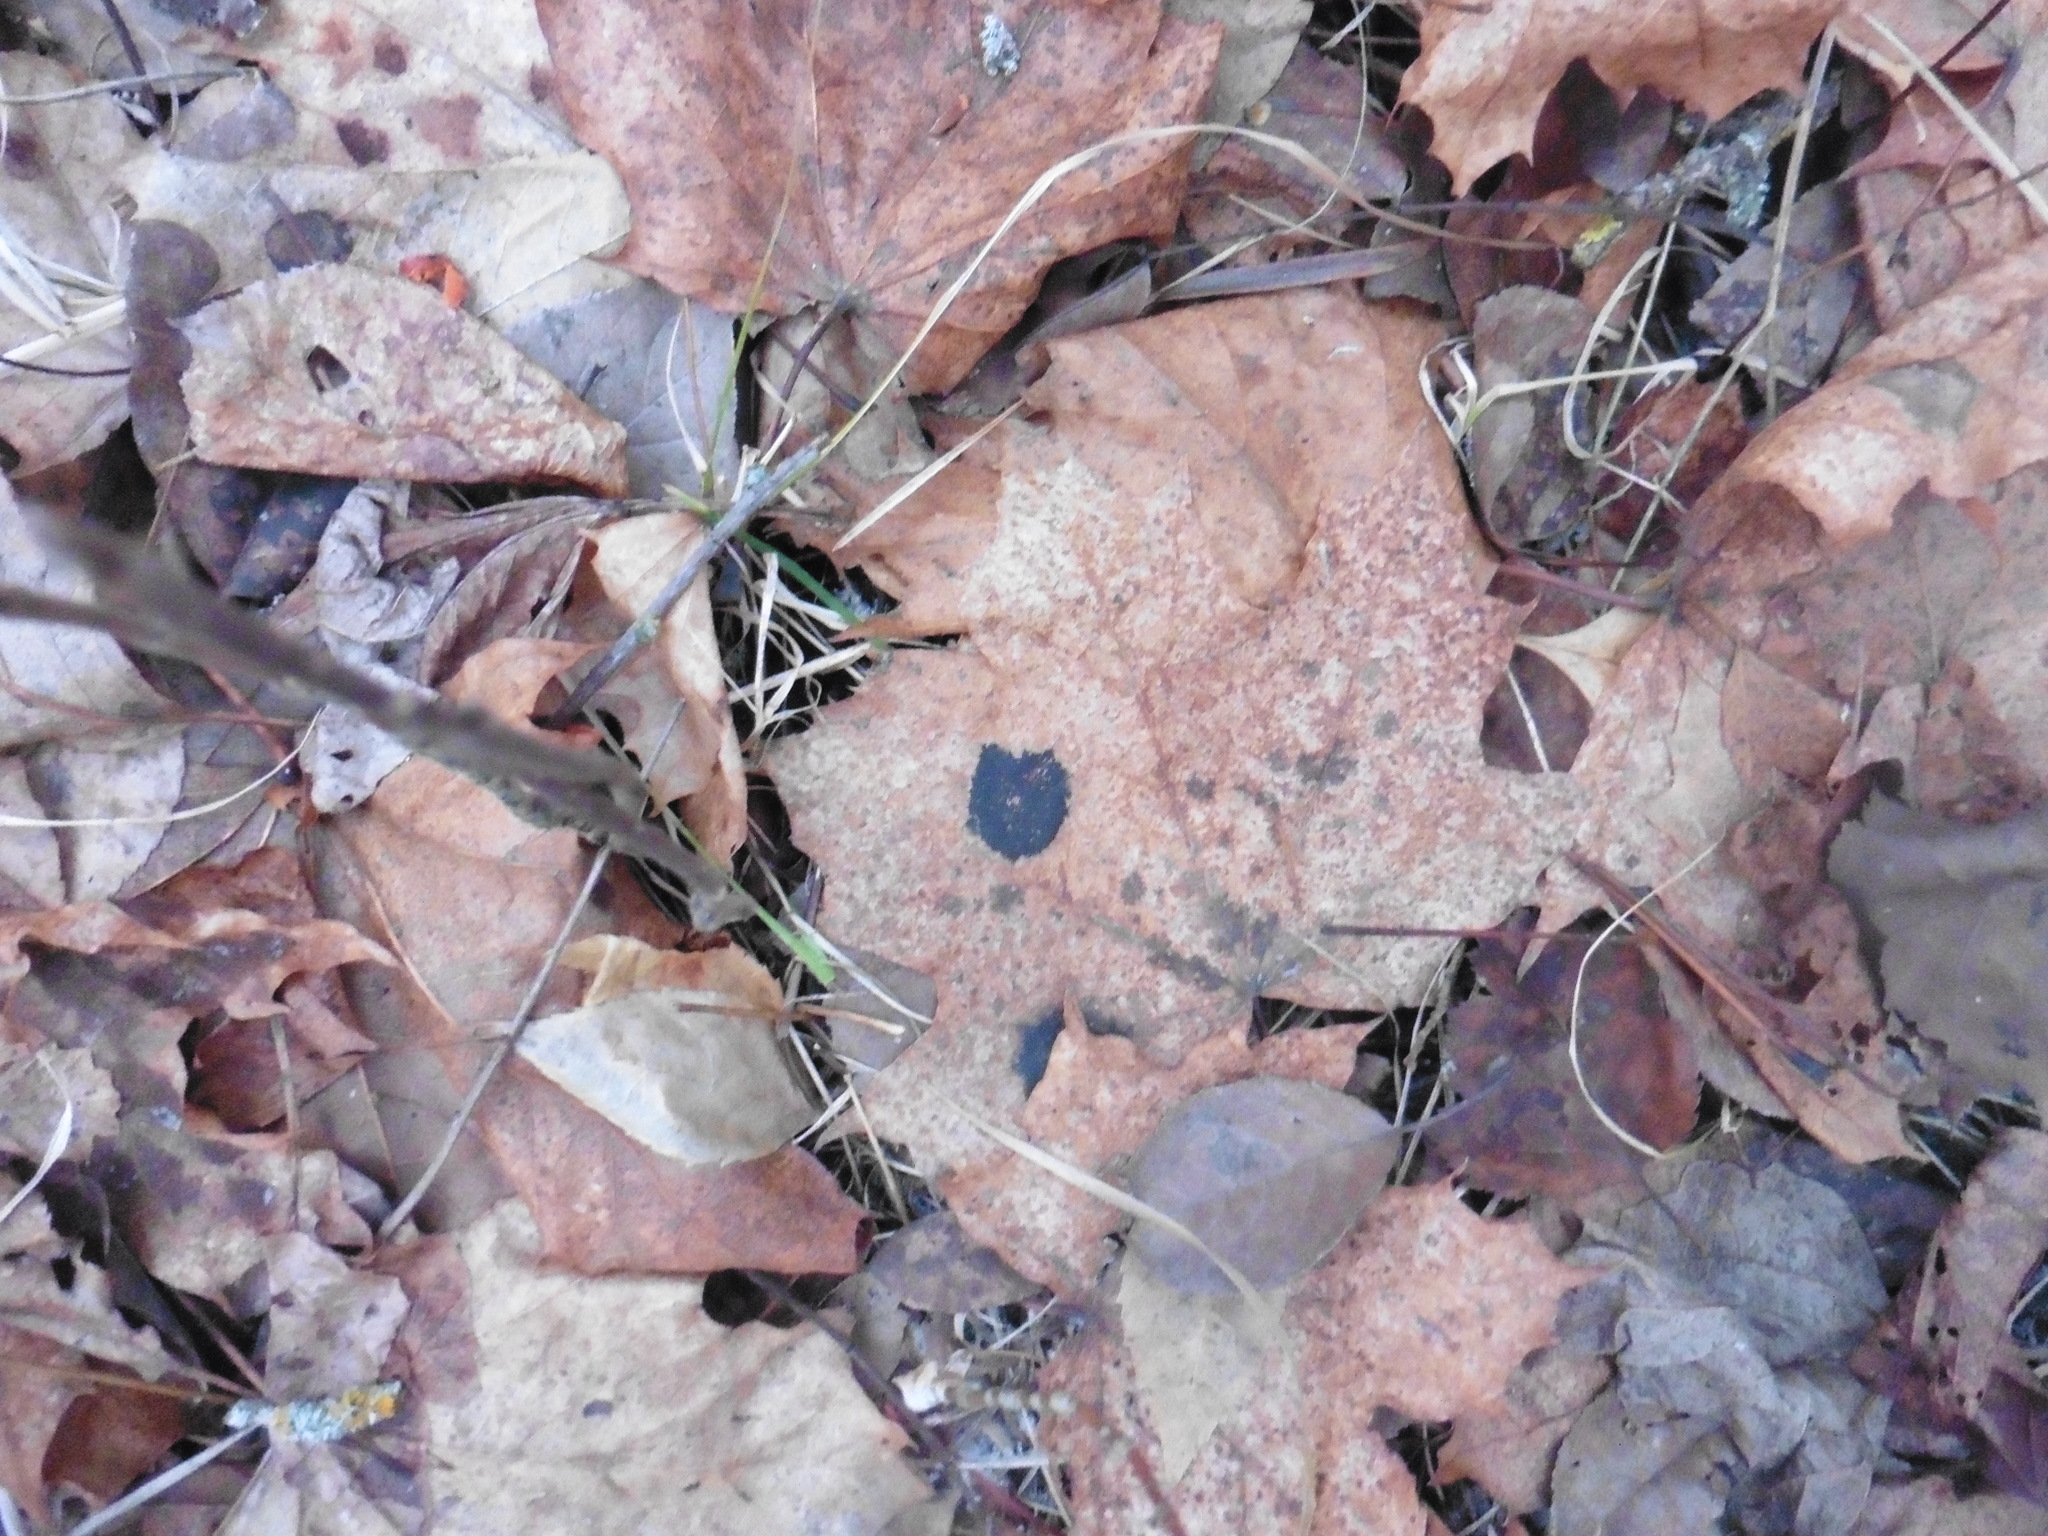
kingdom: Fungi
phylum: Ascomycota
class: Leotiomycetes
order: Rhytismatales
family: Rhytismataceae
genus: Rhytisma
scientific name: Rhytisma acerinum
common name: European tar spot
